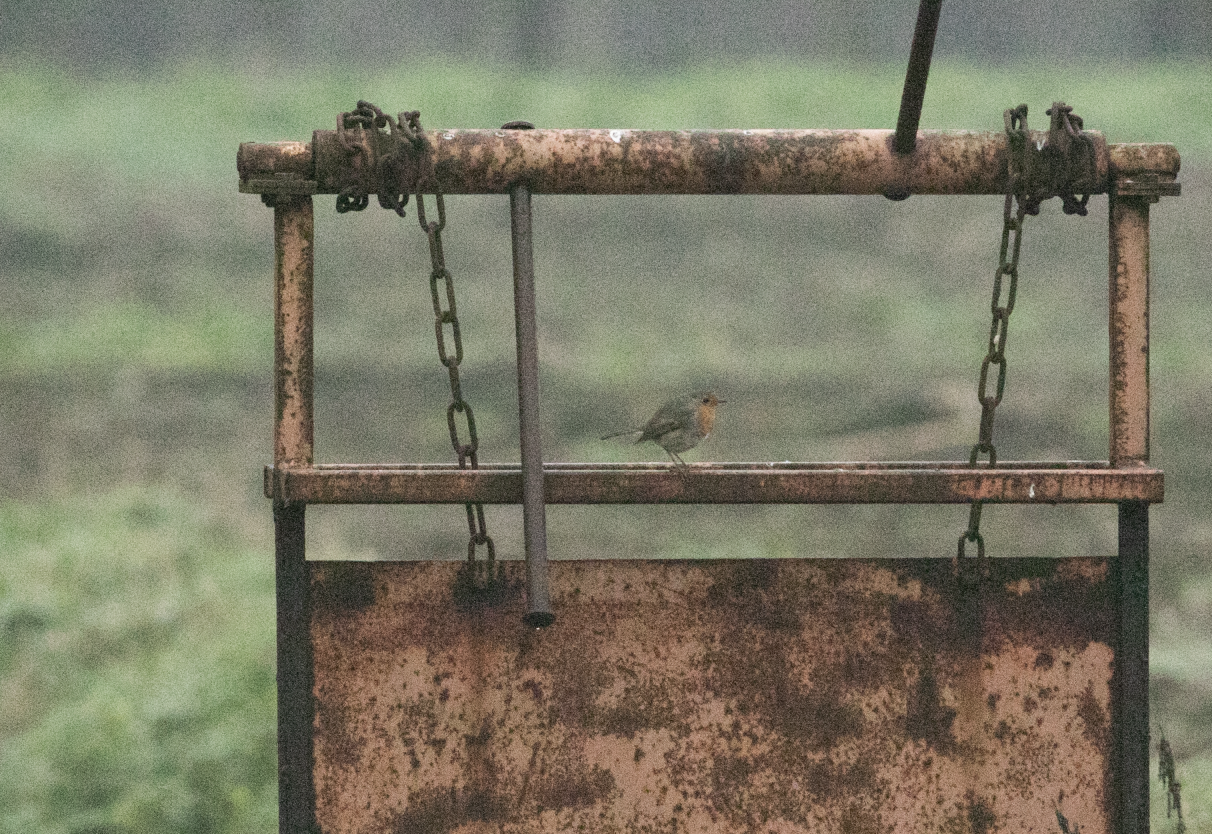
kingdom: Animalia
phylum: Chordata
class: Aves
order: Passeriformes
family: Muscicapidae
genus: Erithacus
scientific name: Erithacus rubecula
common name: European robin
